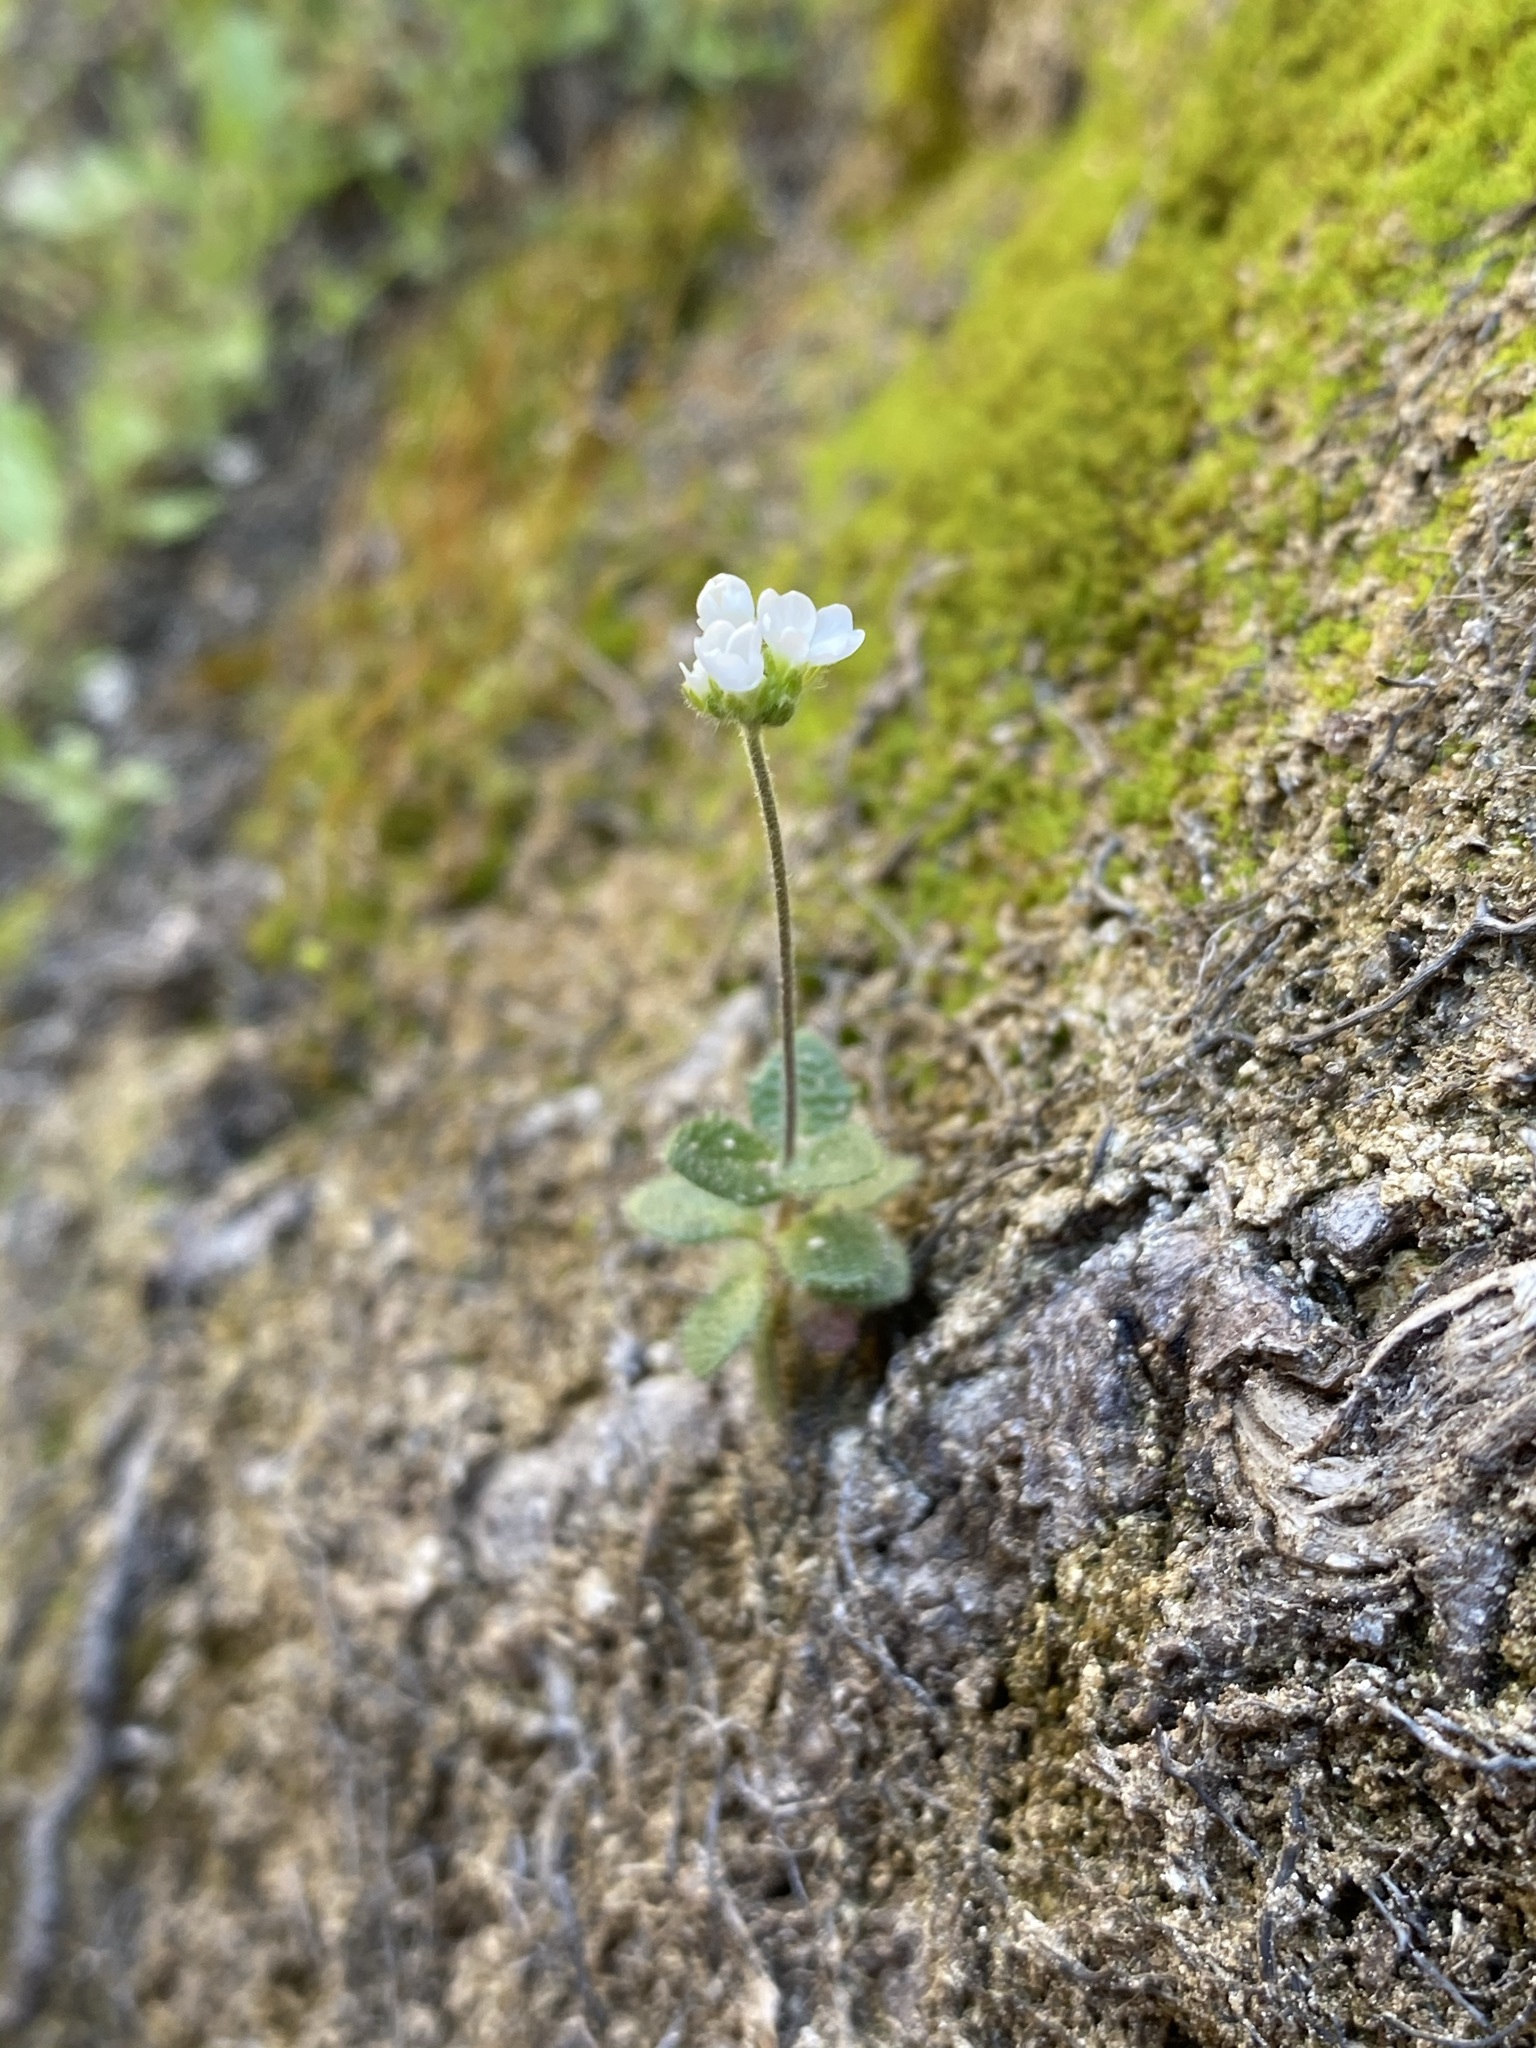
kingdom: Plantae
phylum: Tracheophyta
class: Magnoliopsida
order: Brassicales
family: Brassicaceae
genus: Tomostima
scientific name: Tomostima cuneifolia
